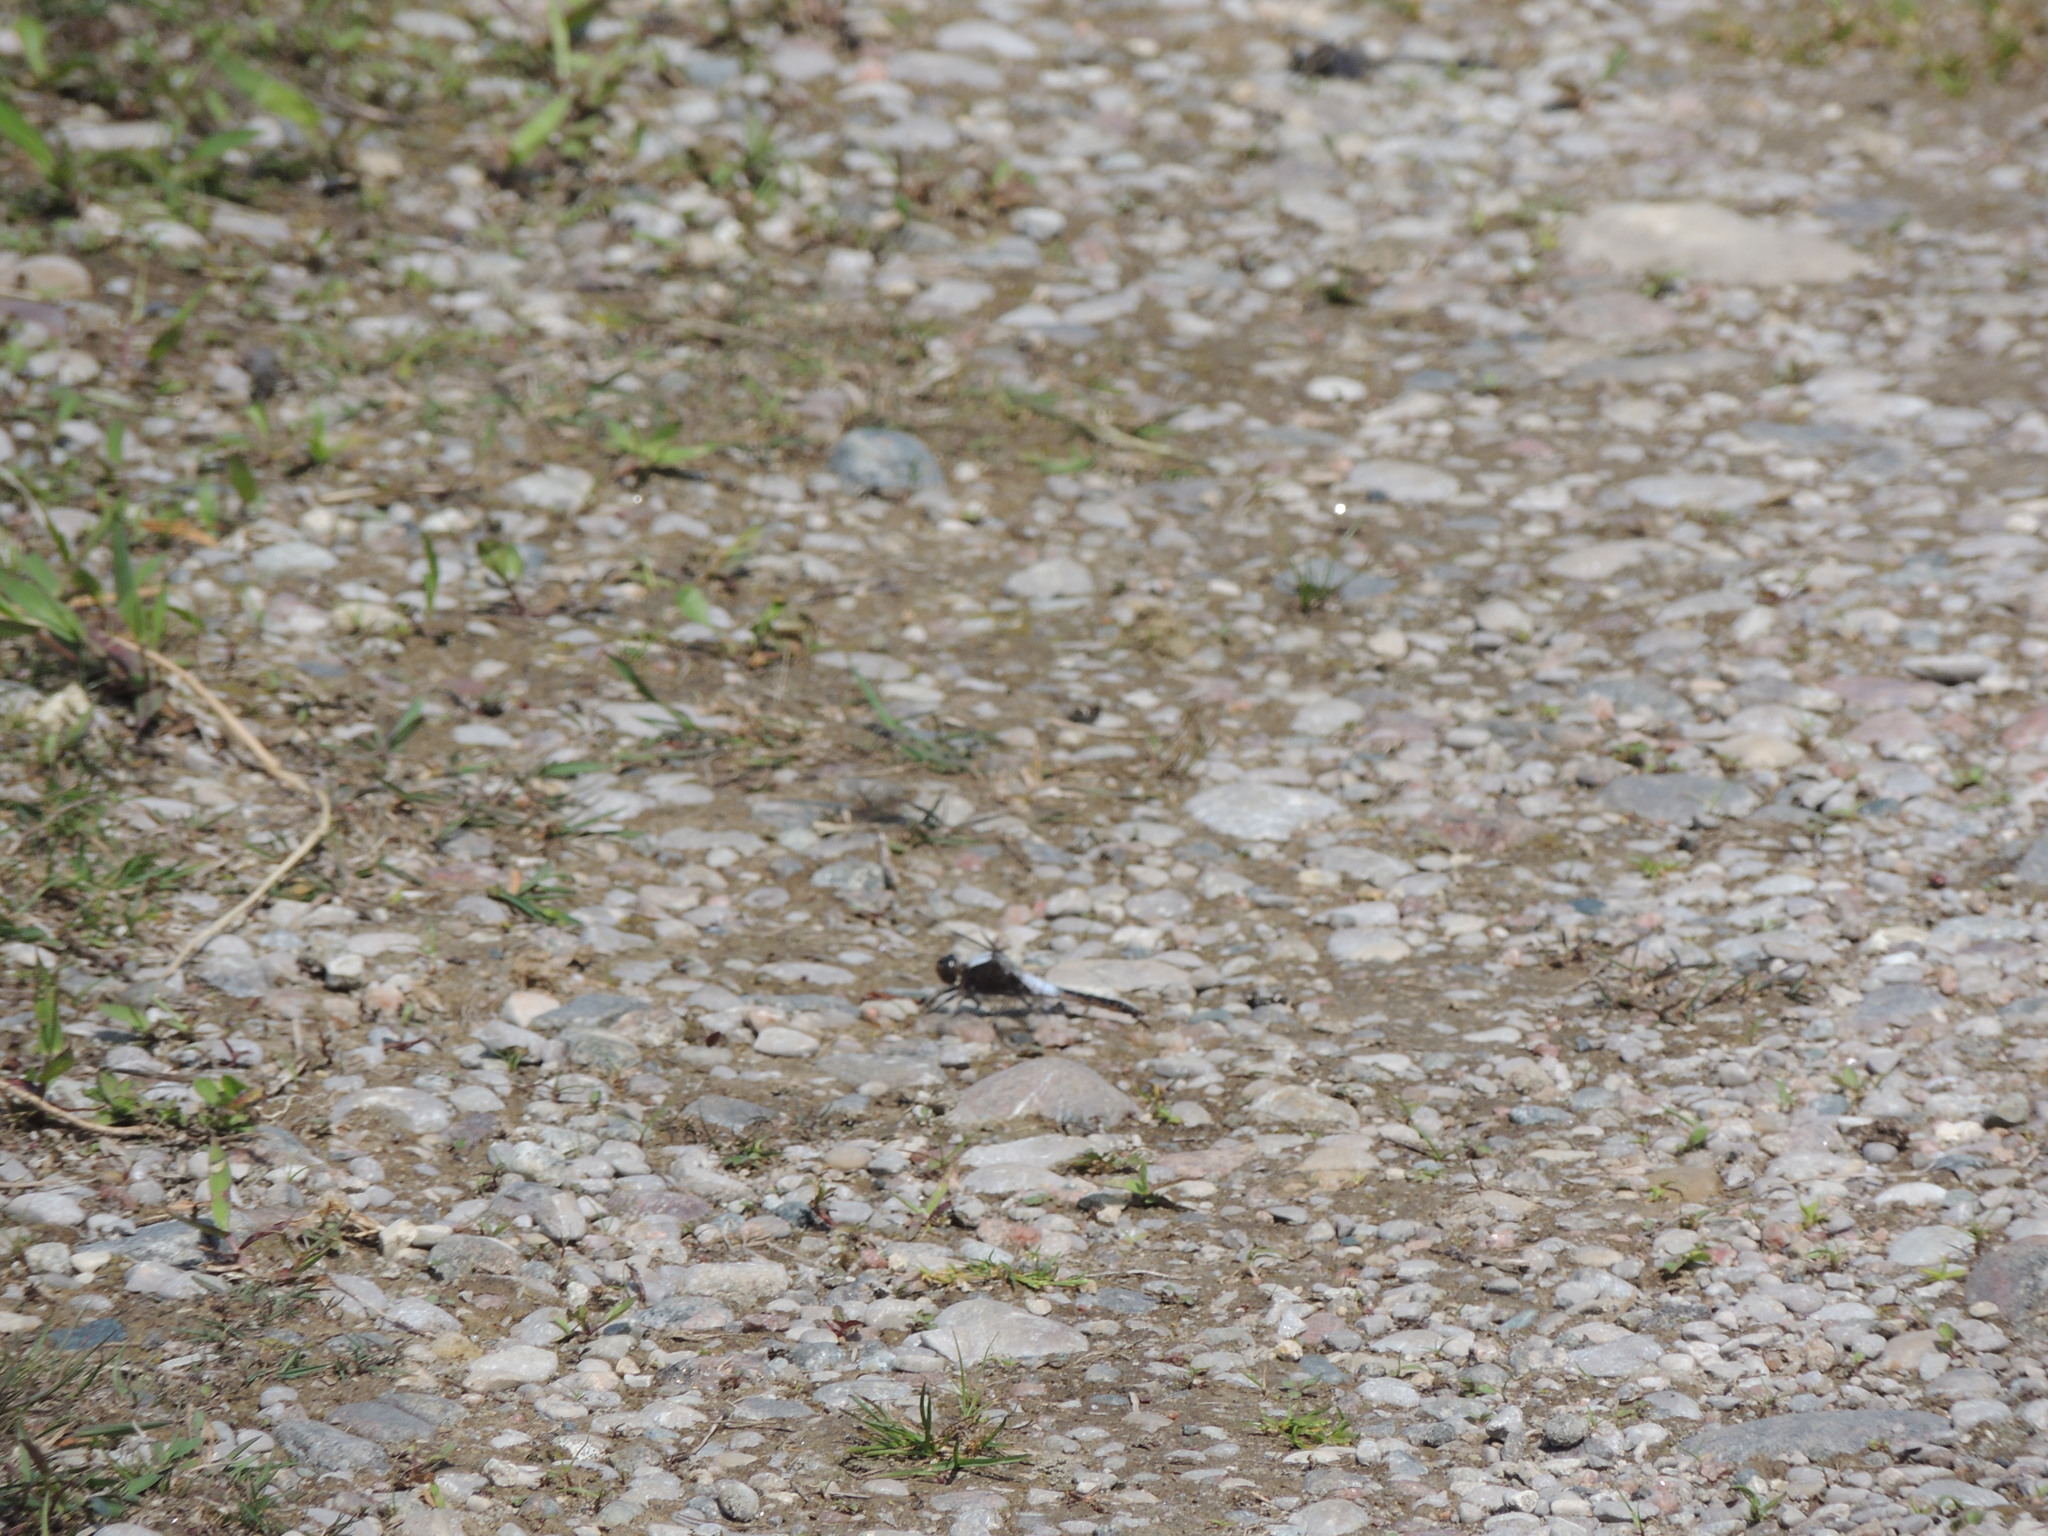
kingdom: Animalia
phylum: Arthropoda
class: Insecta
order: Odonata
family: Libellulidae
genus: Ladona
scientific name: Ladona julia
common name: Chalk-fronted corporal
